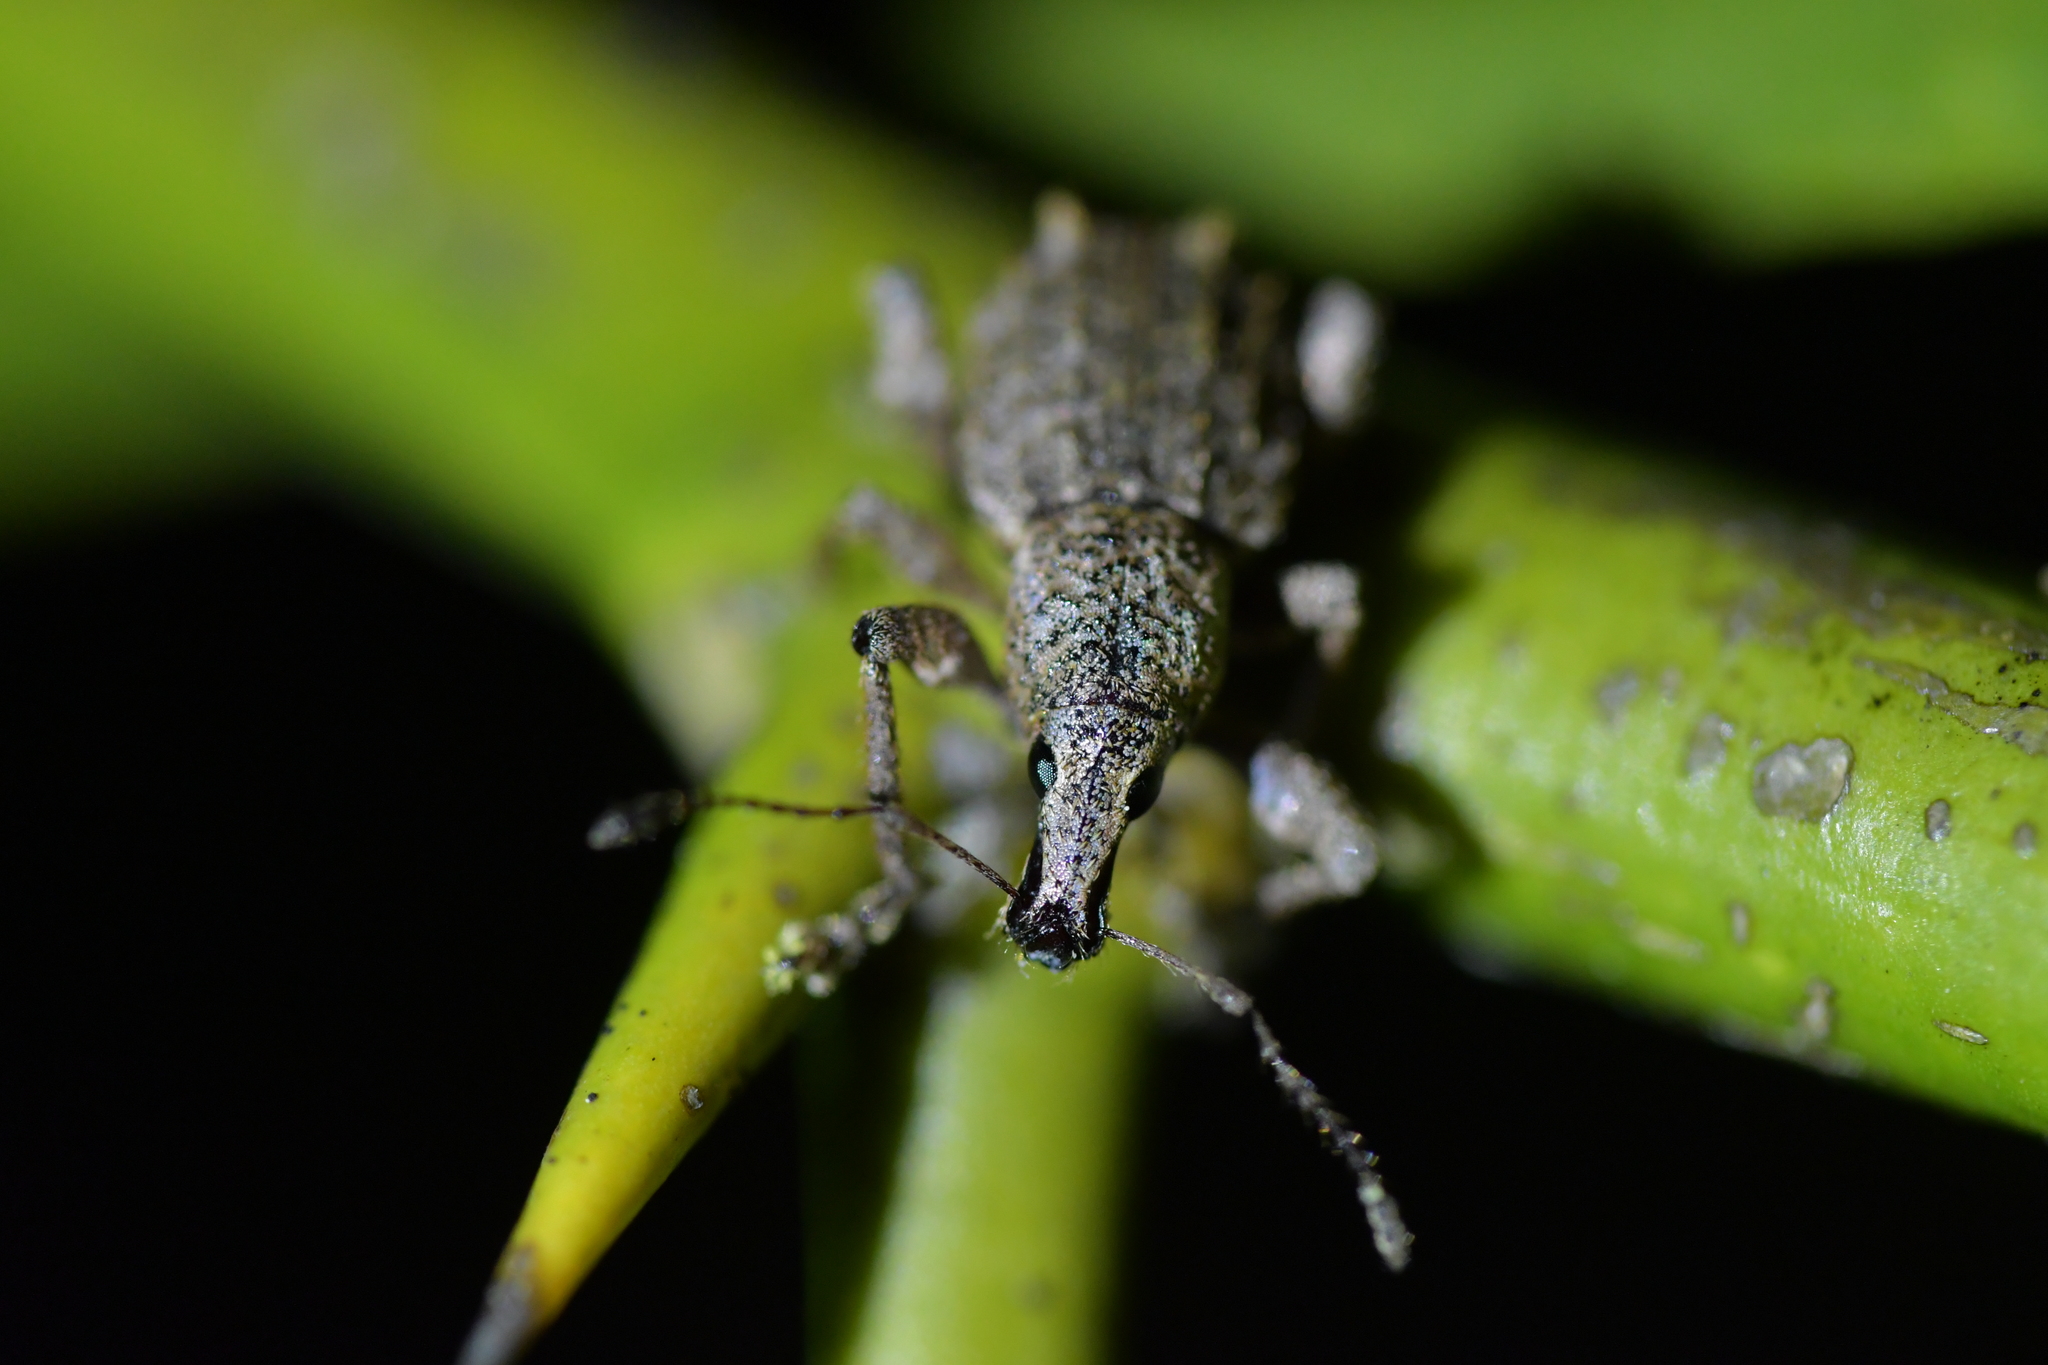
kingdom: Animalia
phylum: Arthropoda
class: Insecta
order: Coleoptera
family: Curculionidae
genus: Catoptes
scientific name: Catoptes binodis
